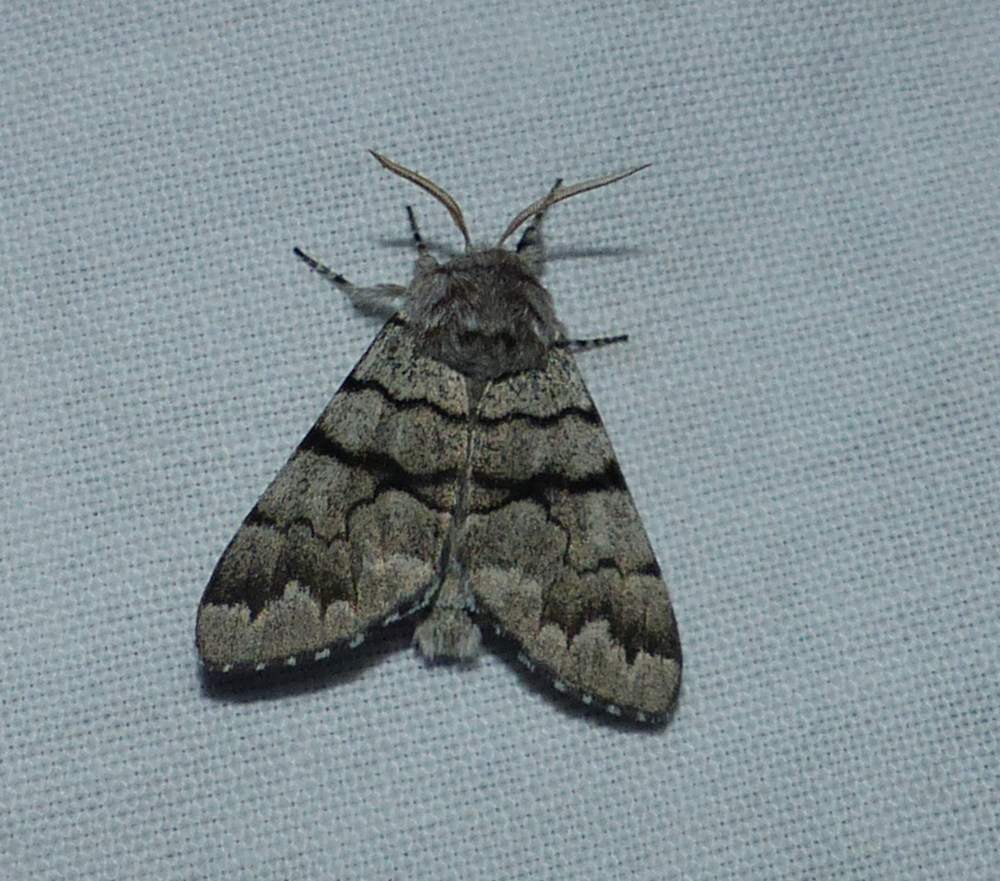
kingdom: Animalia
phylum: Arthropoda
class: Insecta
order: Lepidoptera
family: Noctuidae
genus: Panthea
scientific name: Panthea furcilla
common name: Eastern panthea moth
